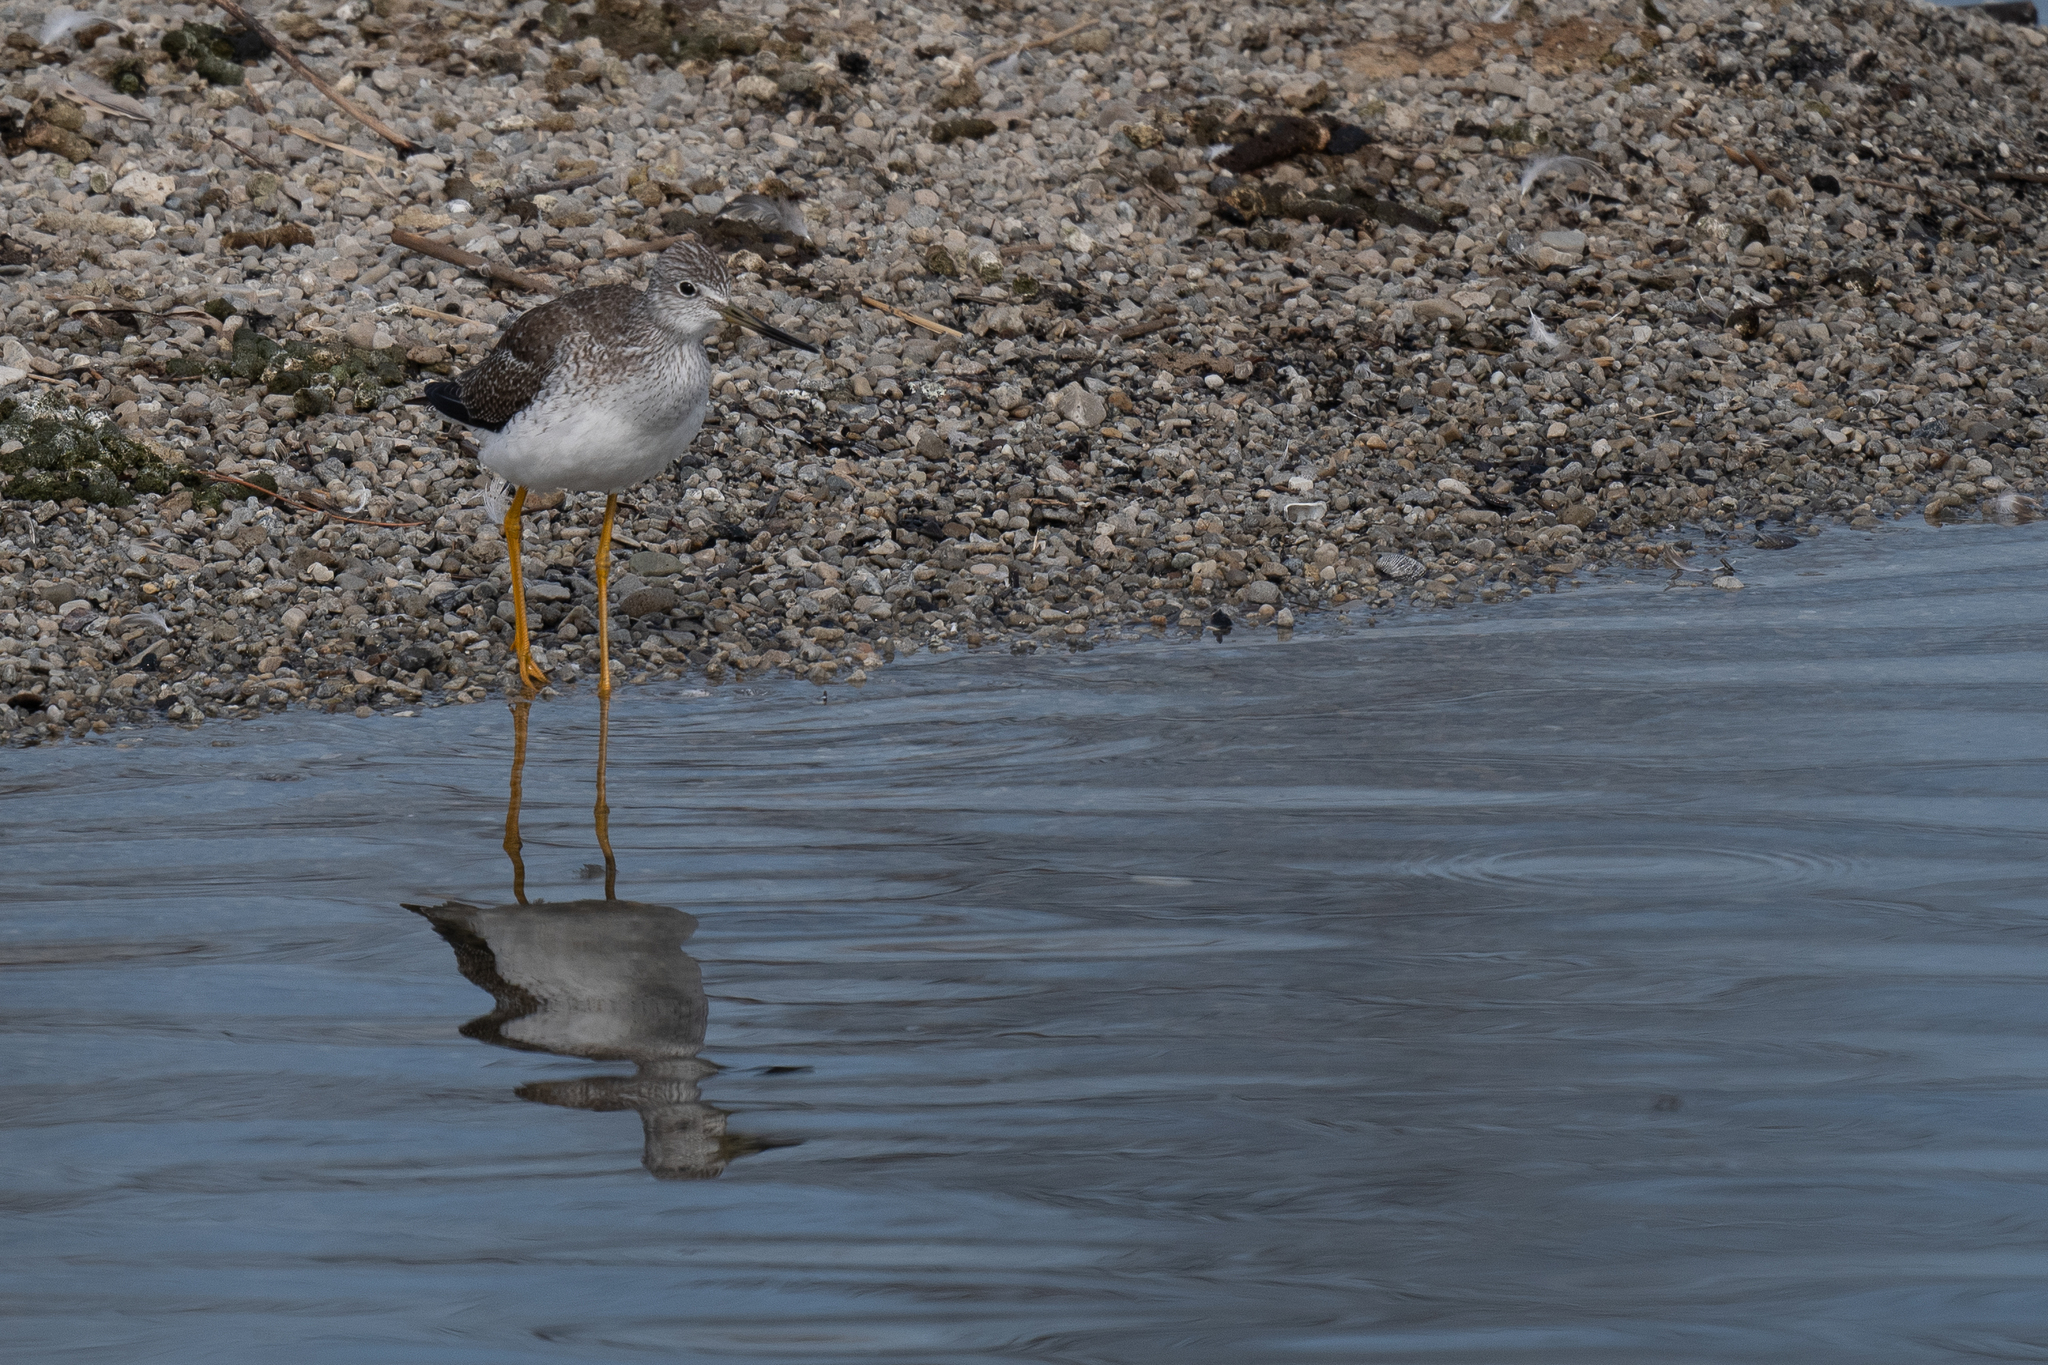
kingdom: Animalia
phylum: Chordata
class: Aves
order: Charadriiformes
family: Scolopacidae
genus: Tringa
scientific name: Tringa melanoleuca
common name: Greater yellowlegs
